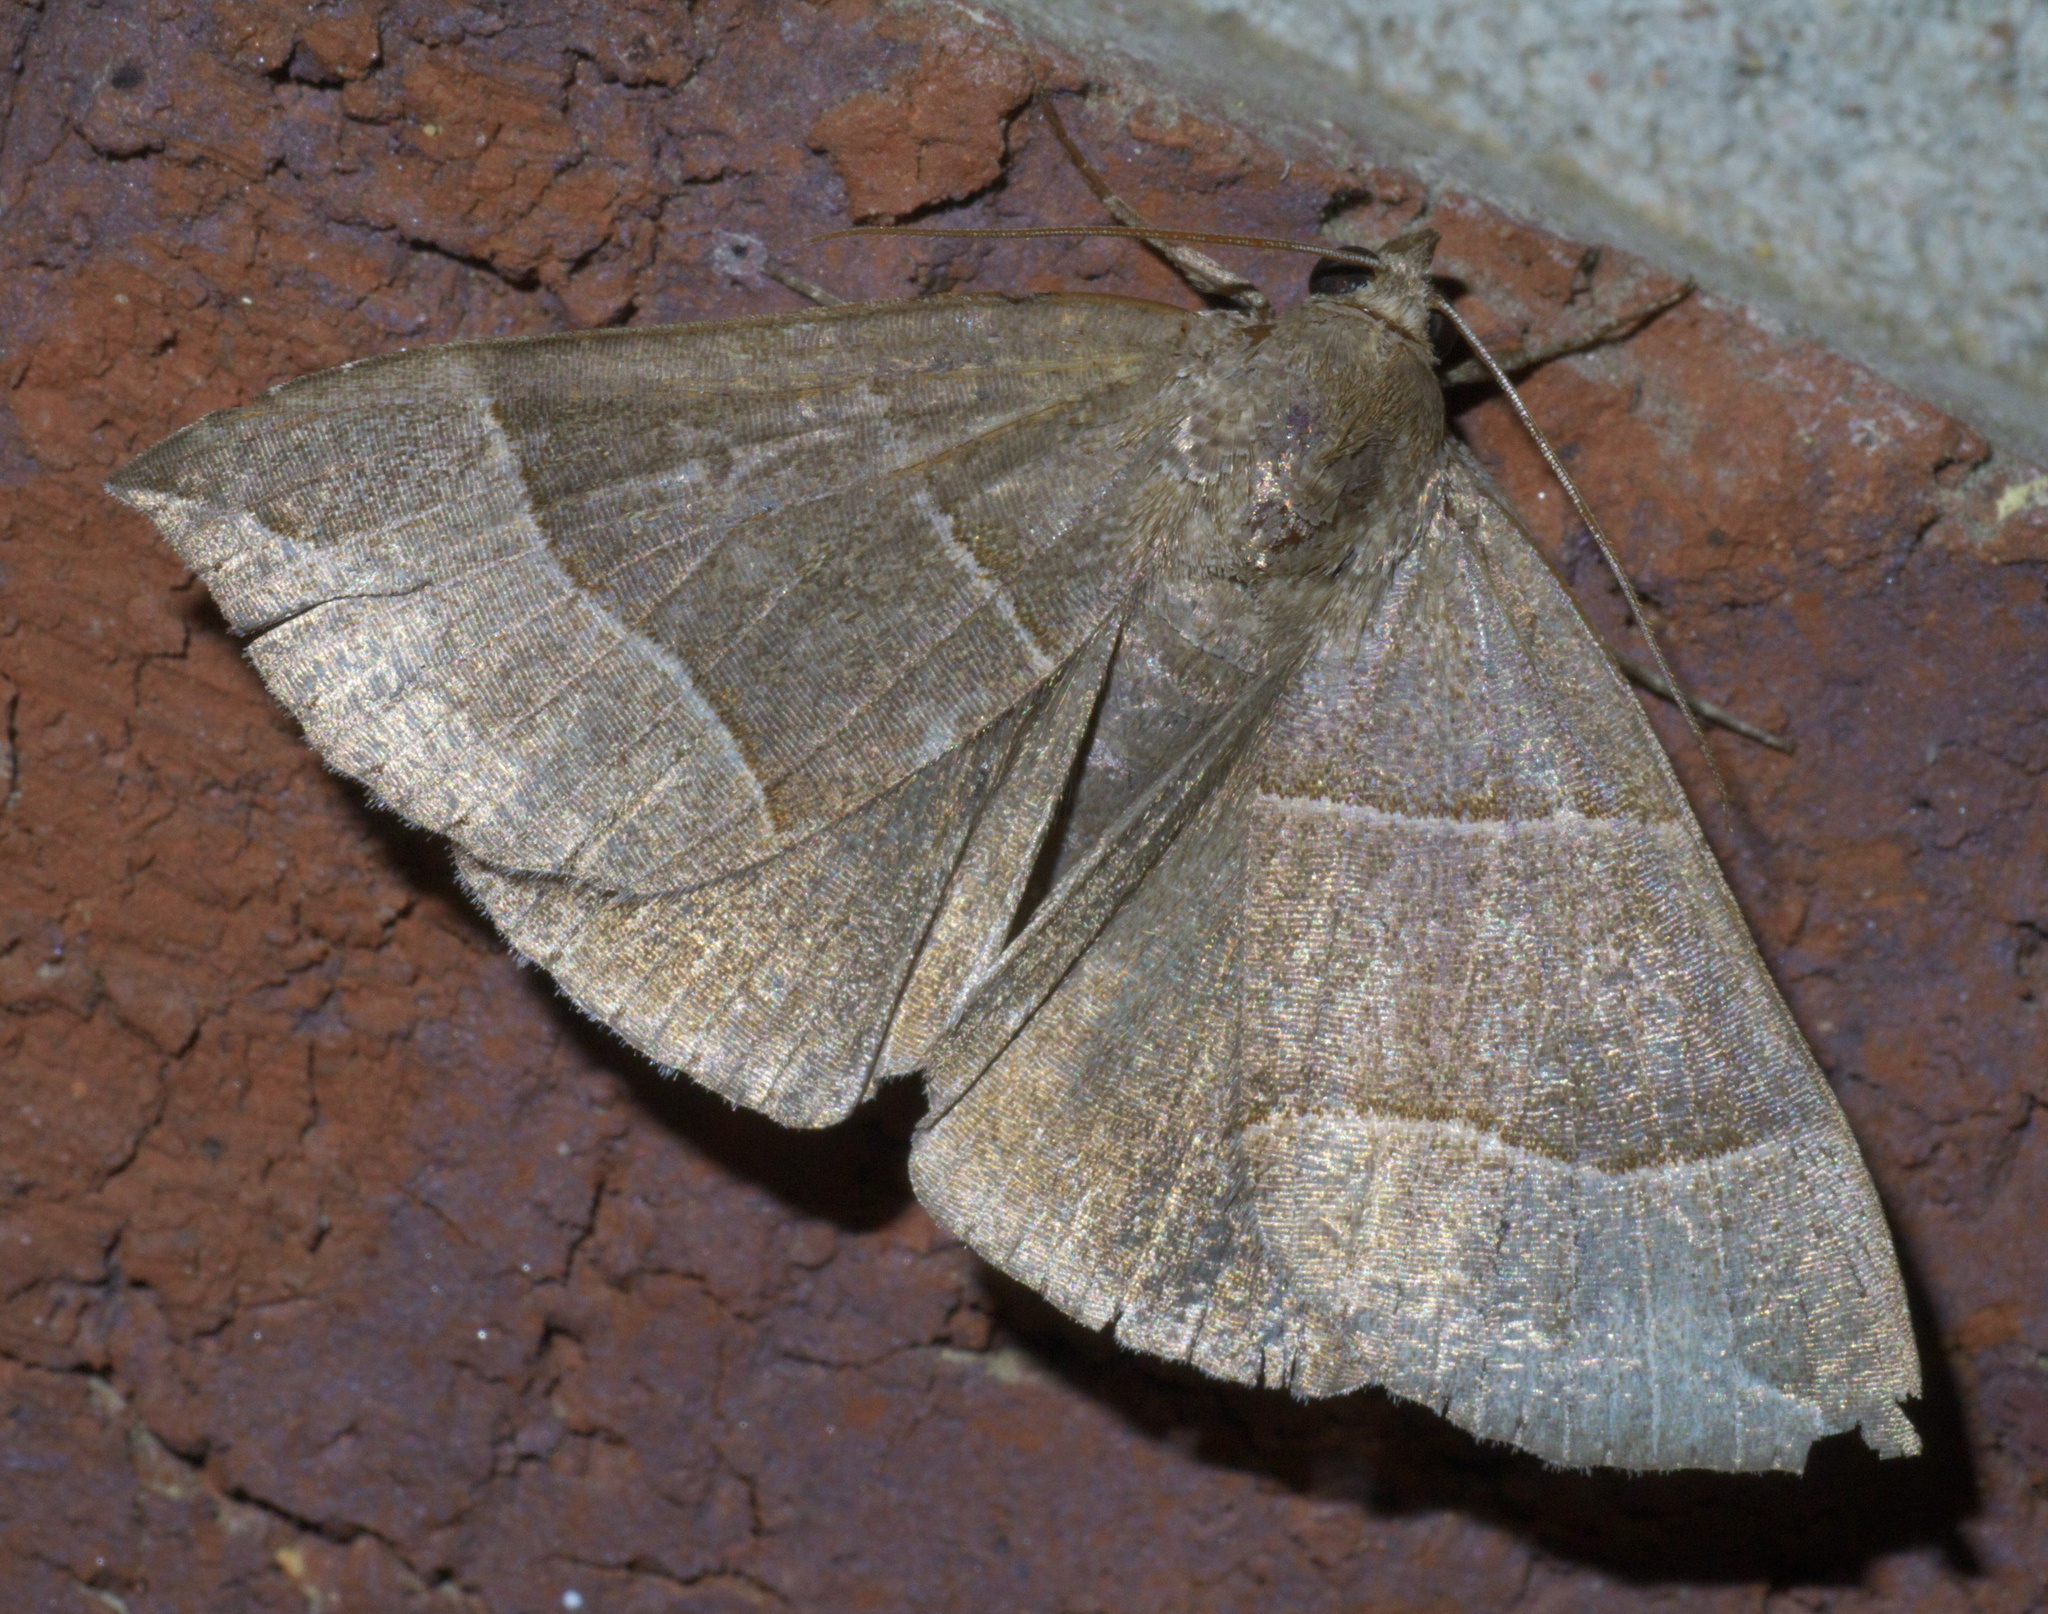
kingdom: Animalia
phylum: Arthropoda
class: Insecta
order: Lepidoptera
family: Erebidae
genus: Parallelia
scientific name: Parallelia bistriaris
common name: Maple looper moth
